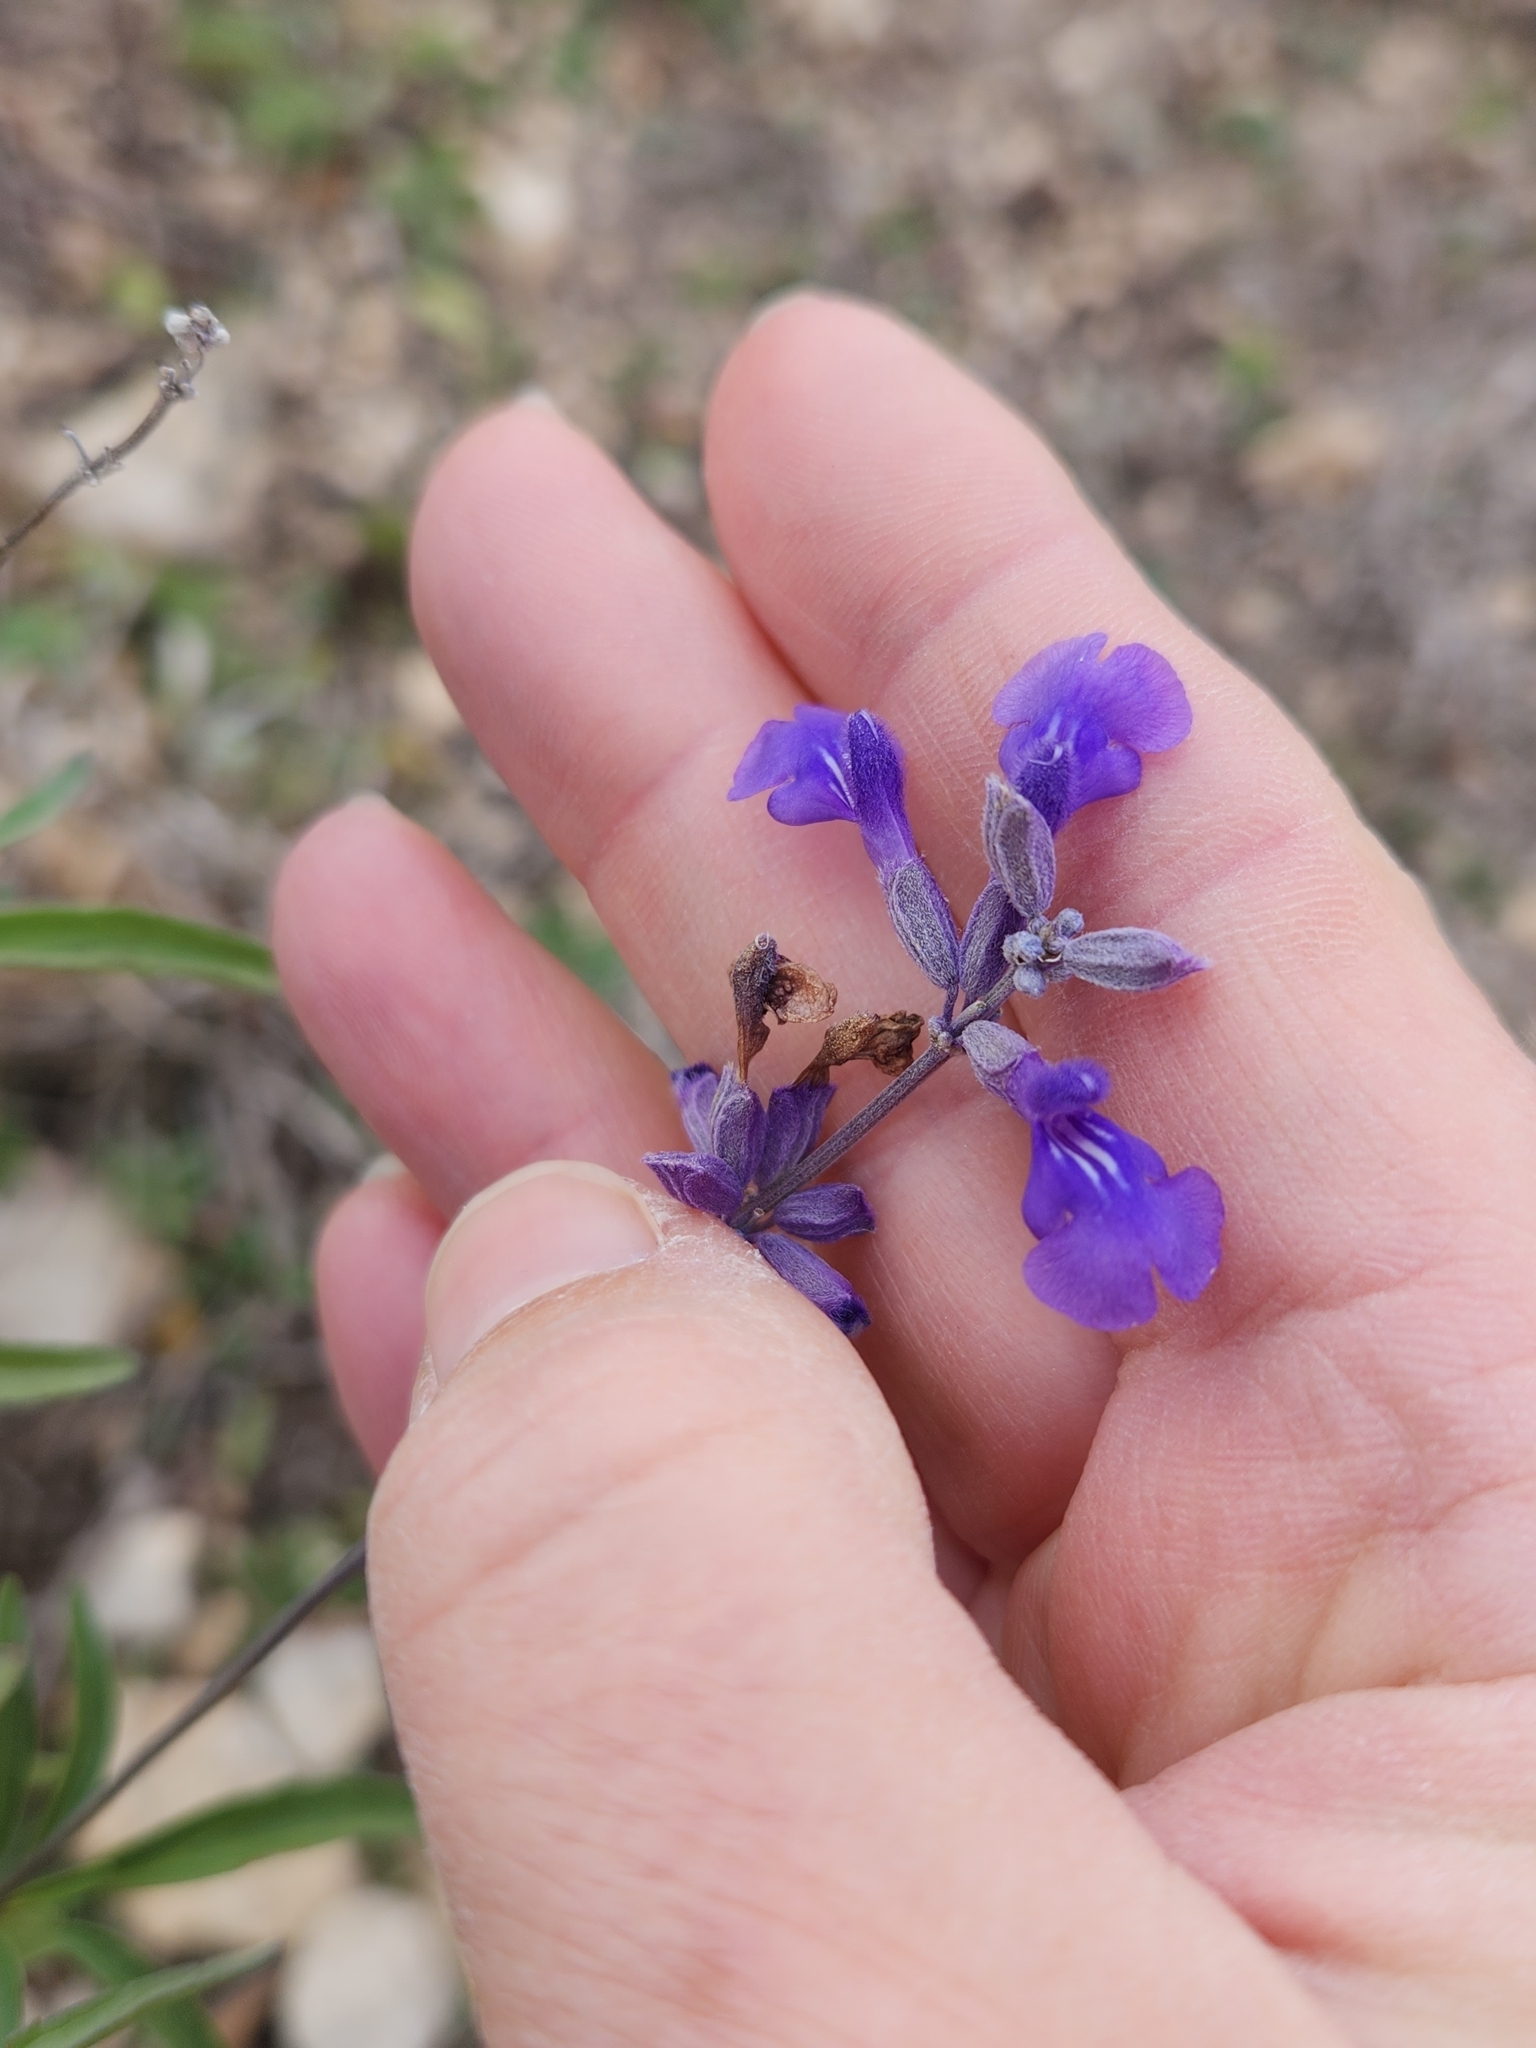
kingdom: Plantae
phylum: Tracheophyta
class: Magnoliopsida
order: Lamiales
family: Lamiaceae
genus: Salvia
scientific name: Salvia farinacea
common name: Mealy sage
